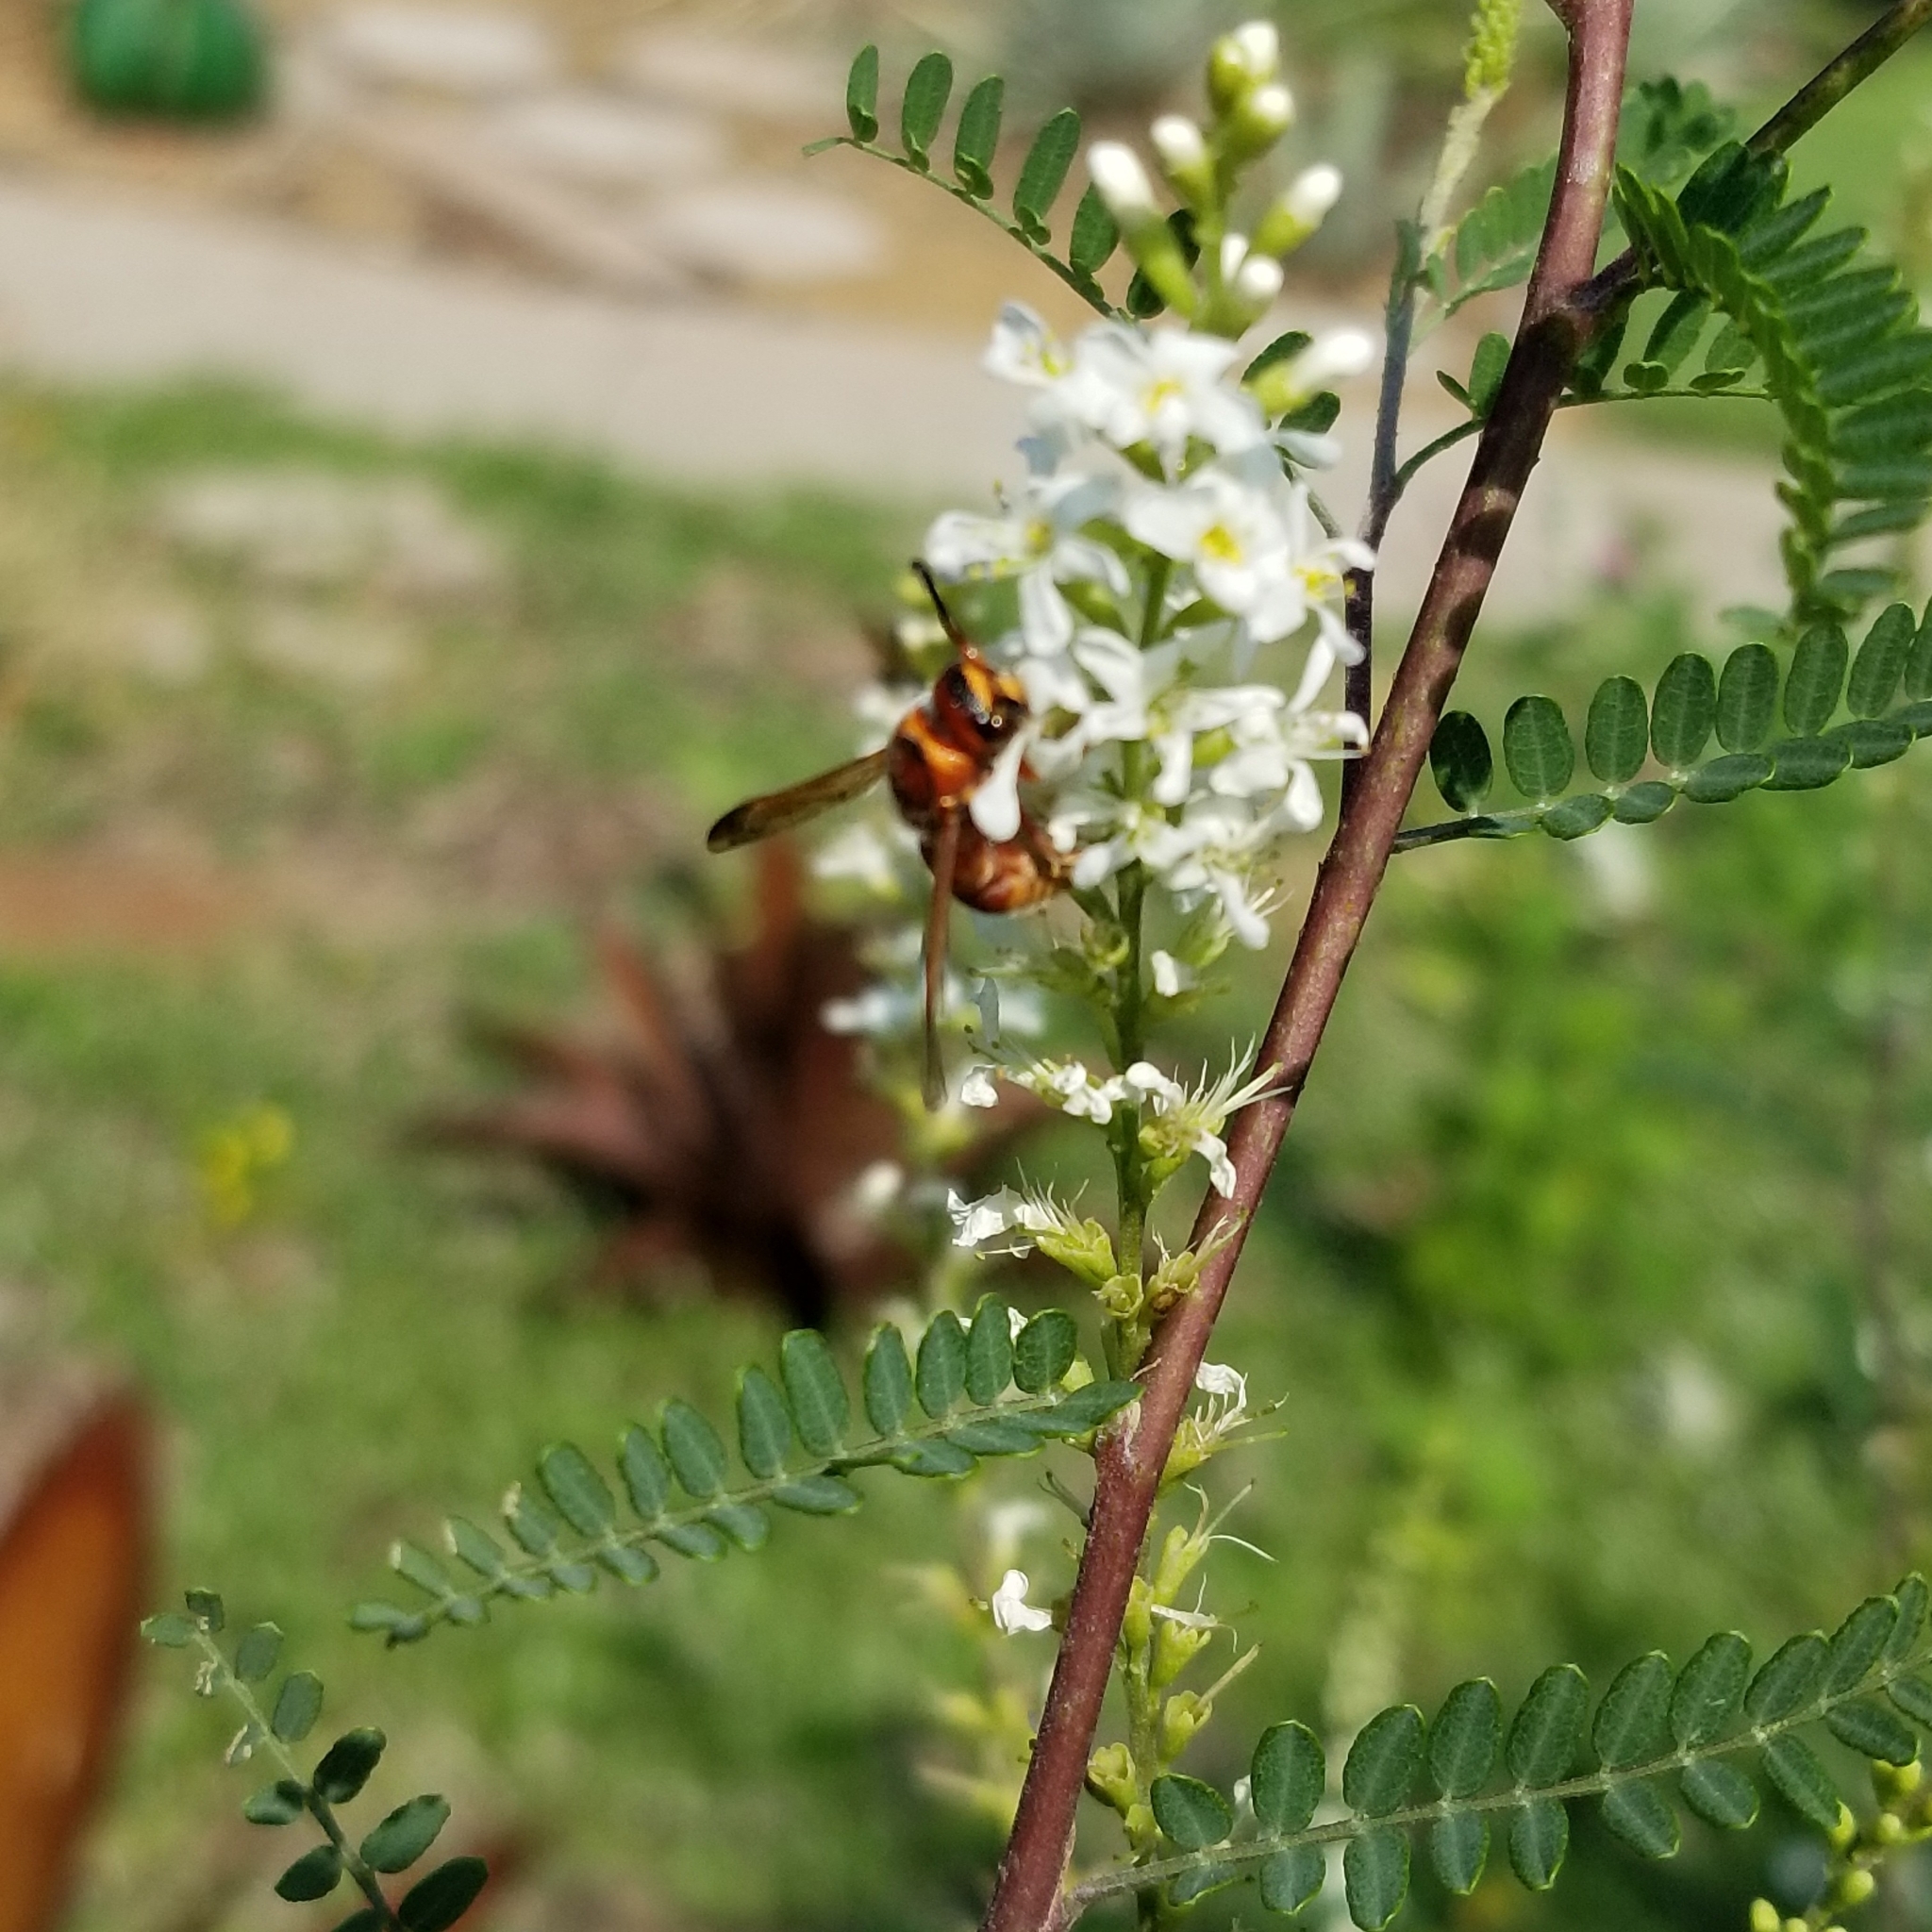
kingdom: Animalia
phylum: Arthropoda
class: Insecta
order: Hymenoptera
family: Eumenidae
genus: Euodynerus
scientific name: Euodynerus pratensis
